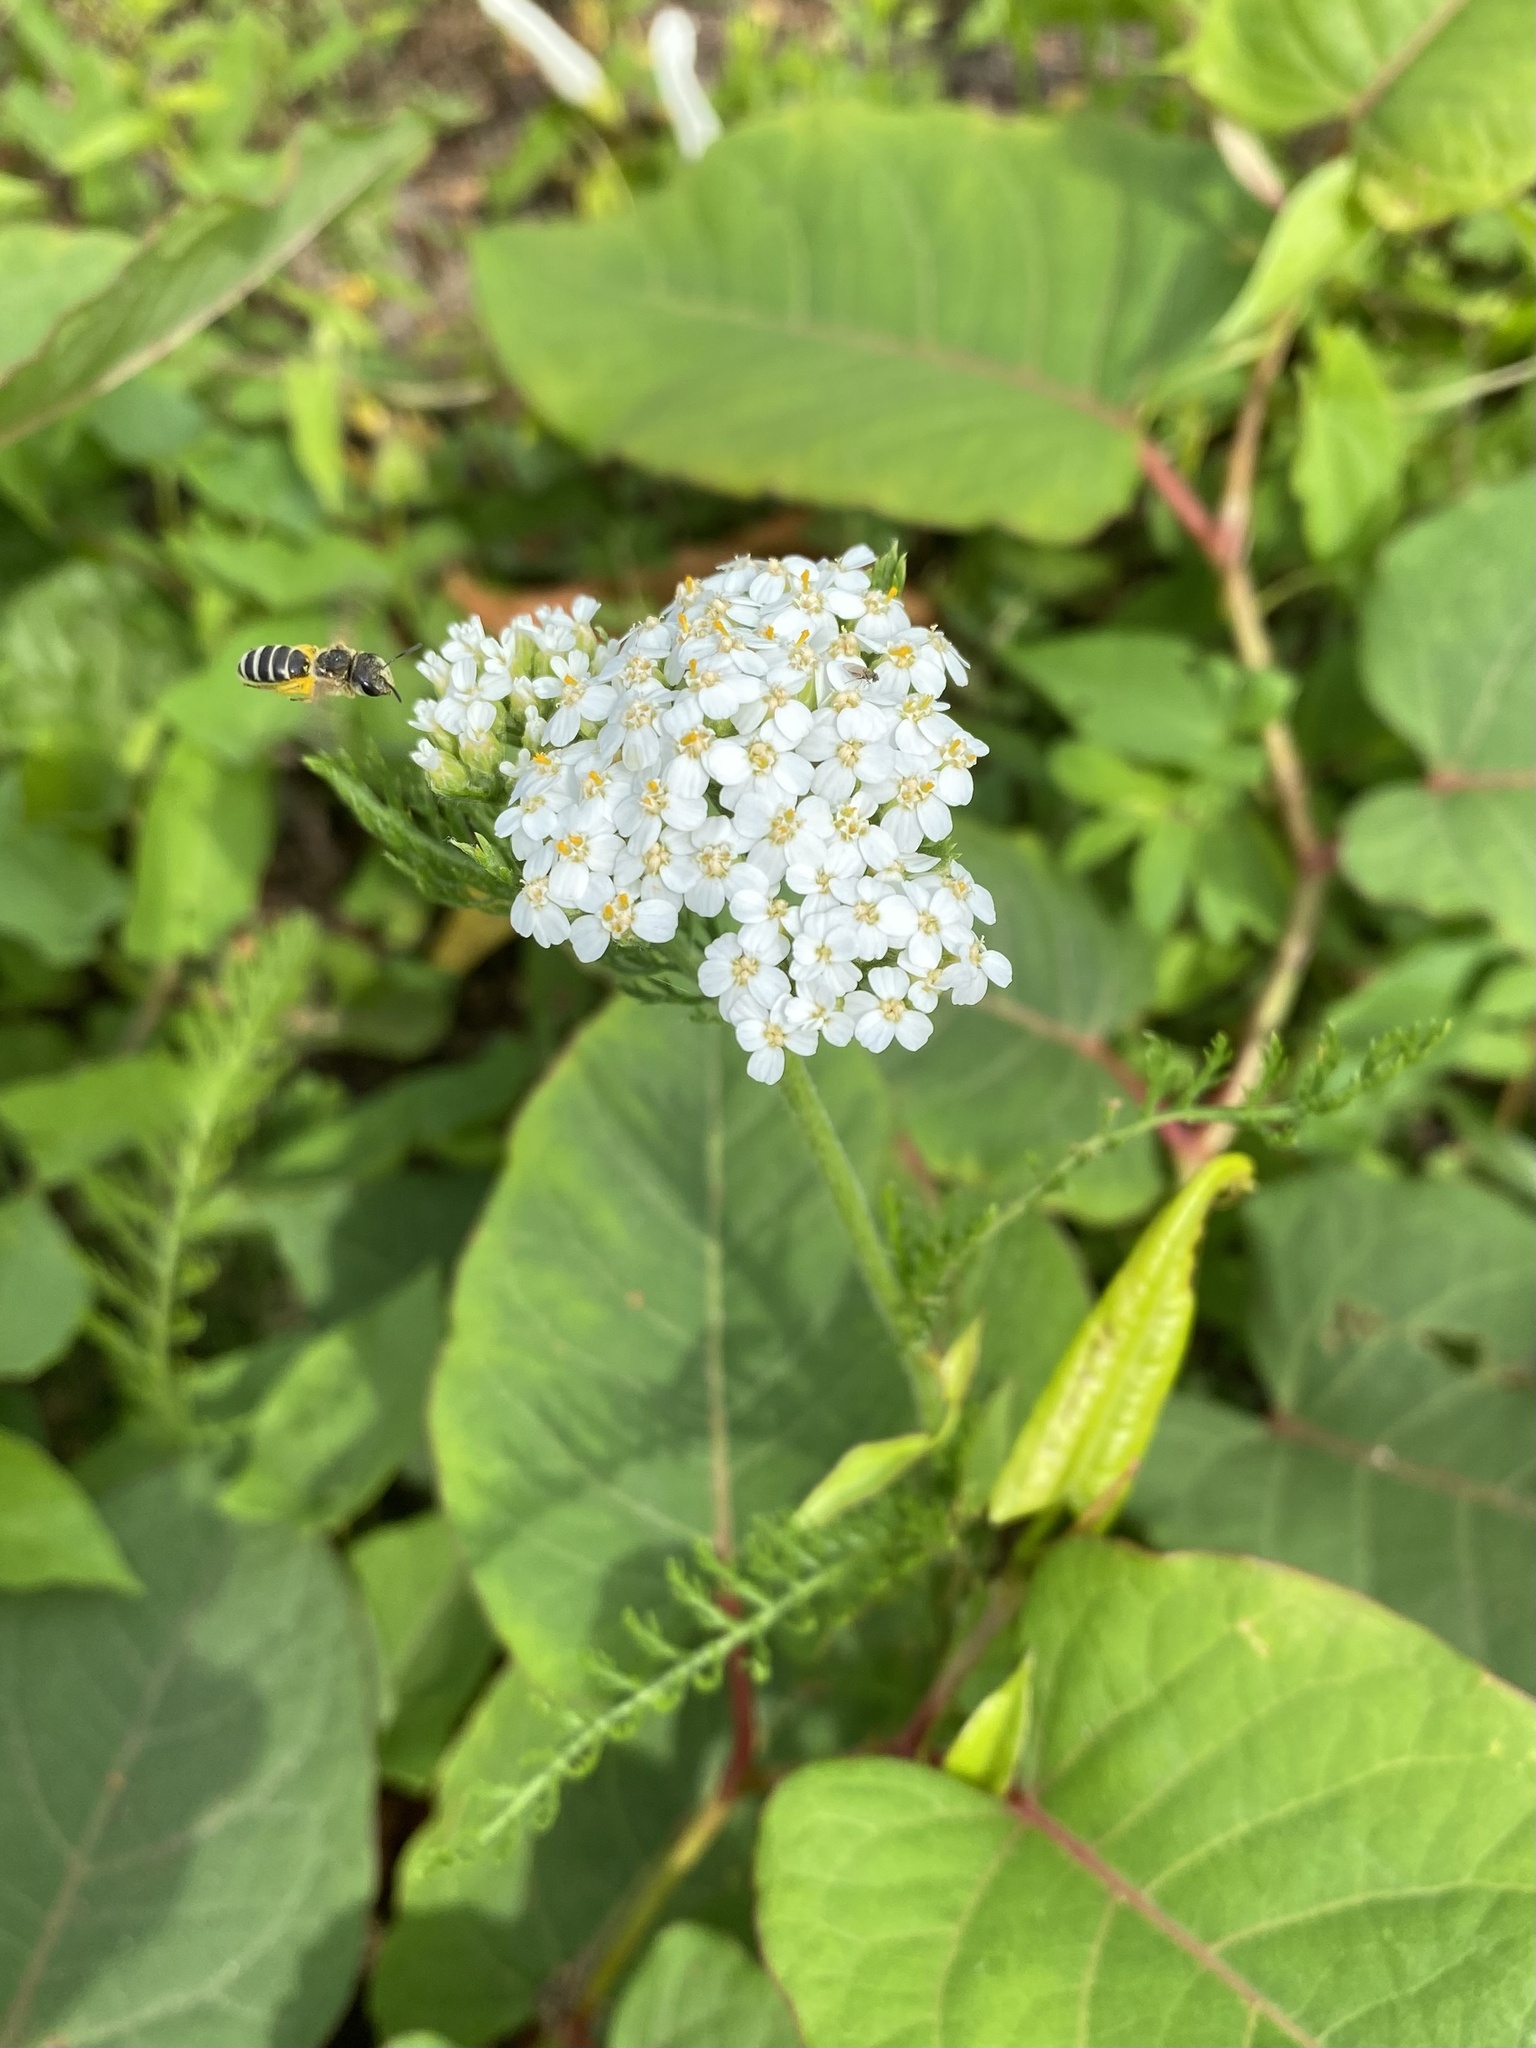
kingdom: Plantae
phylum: Tracheophyta
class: Magnoliopsida
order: Asterales
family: Asteraceae
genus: Achillea
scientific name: Achillea millefolium
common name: Yarrow
